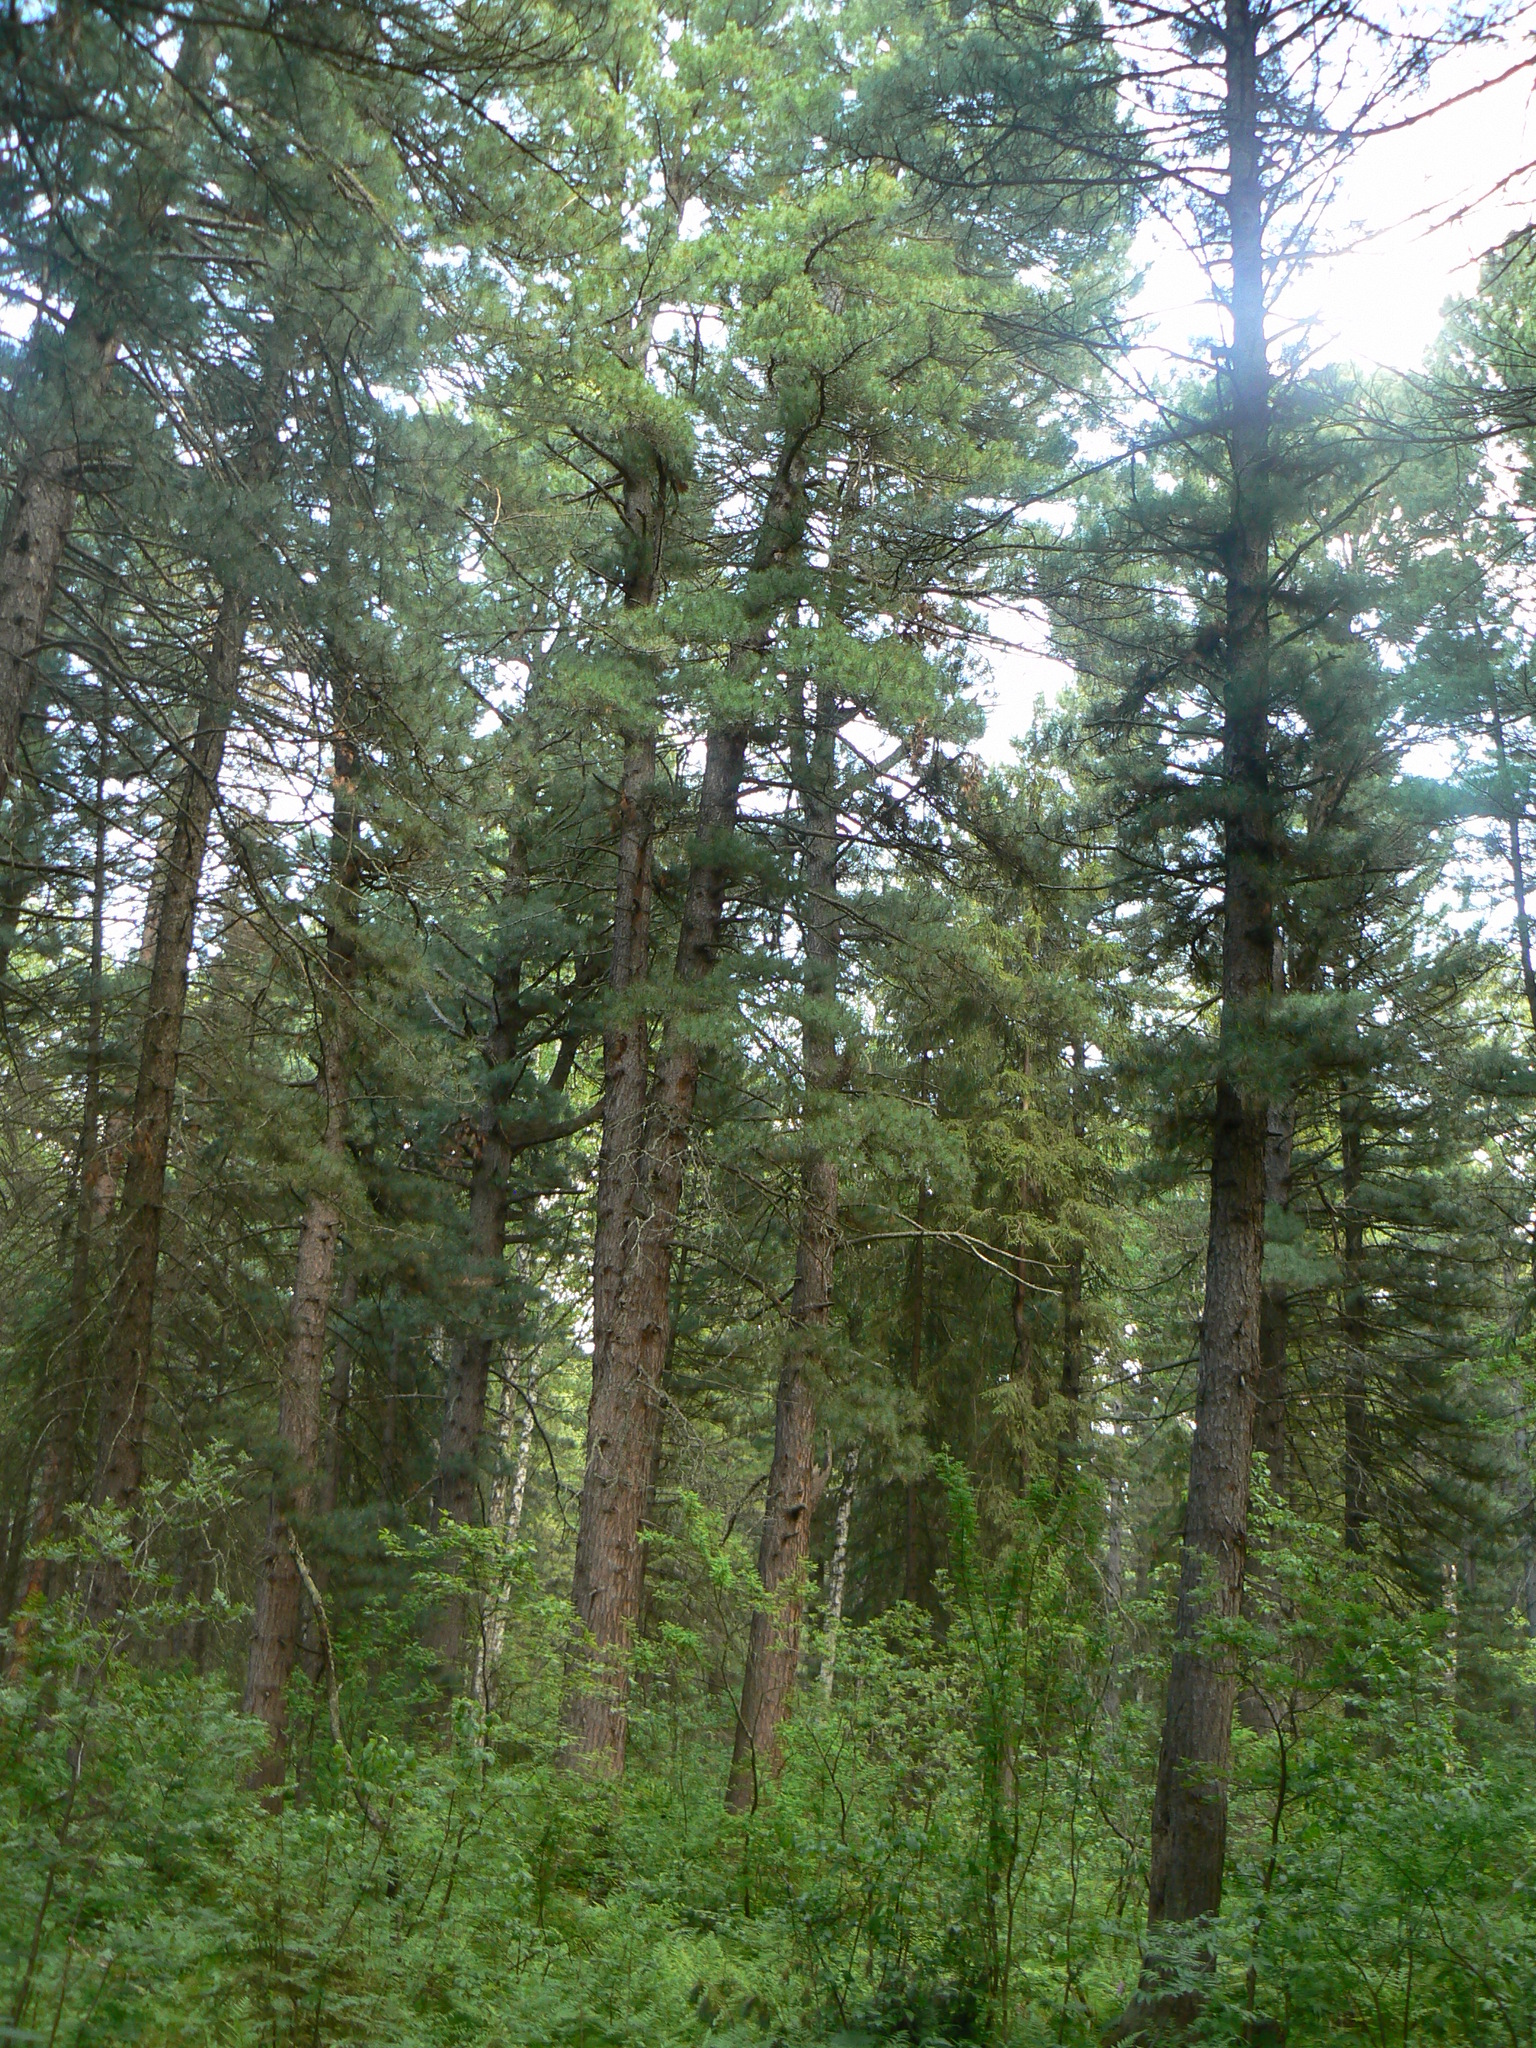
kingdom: Plantae
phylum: Tracheophyta
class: Pinopsida
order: Pinales
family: Pinaceae
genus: Pinus
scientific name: Pinus sibirica
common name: Siberian pine
